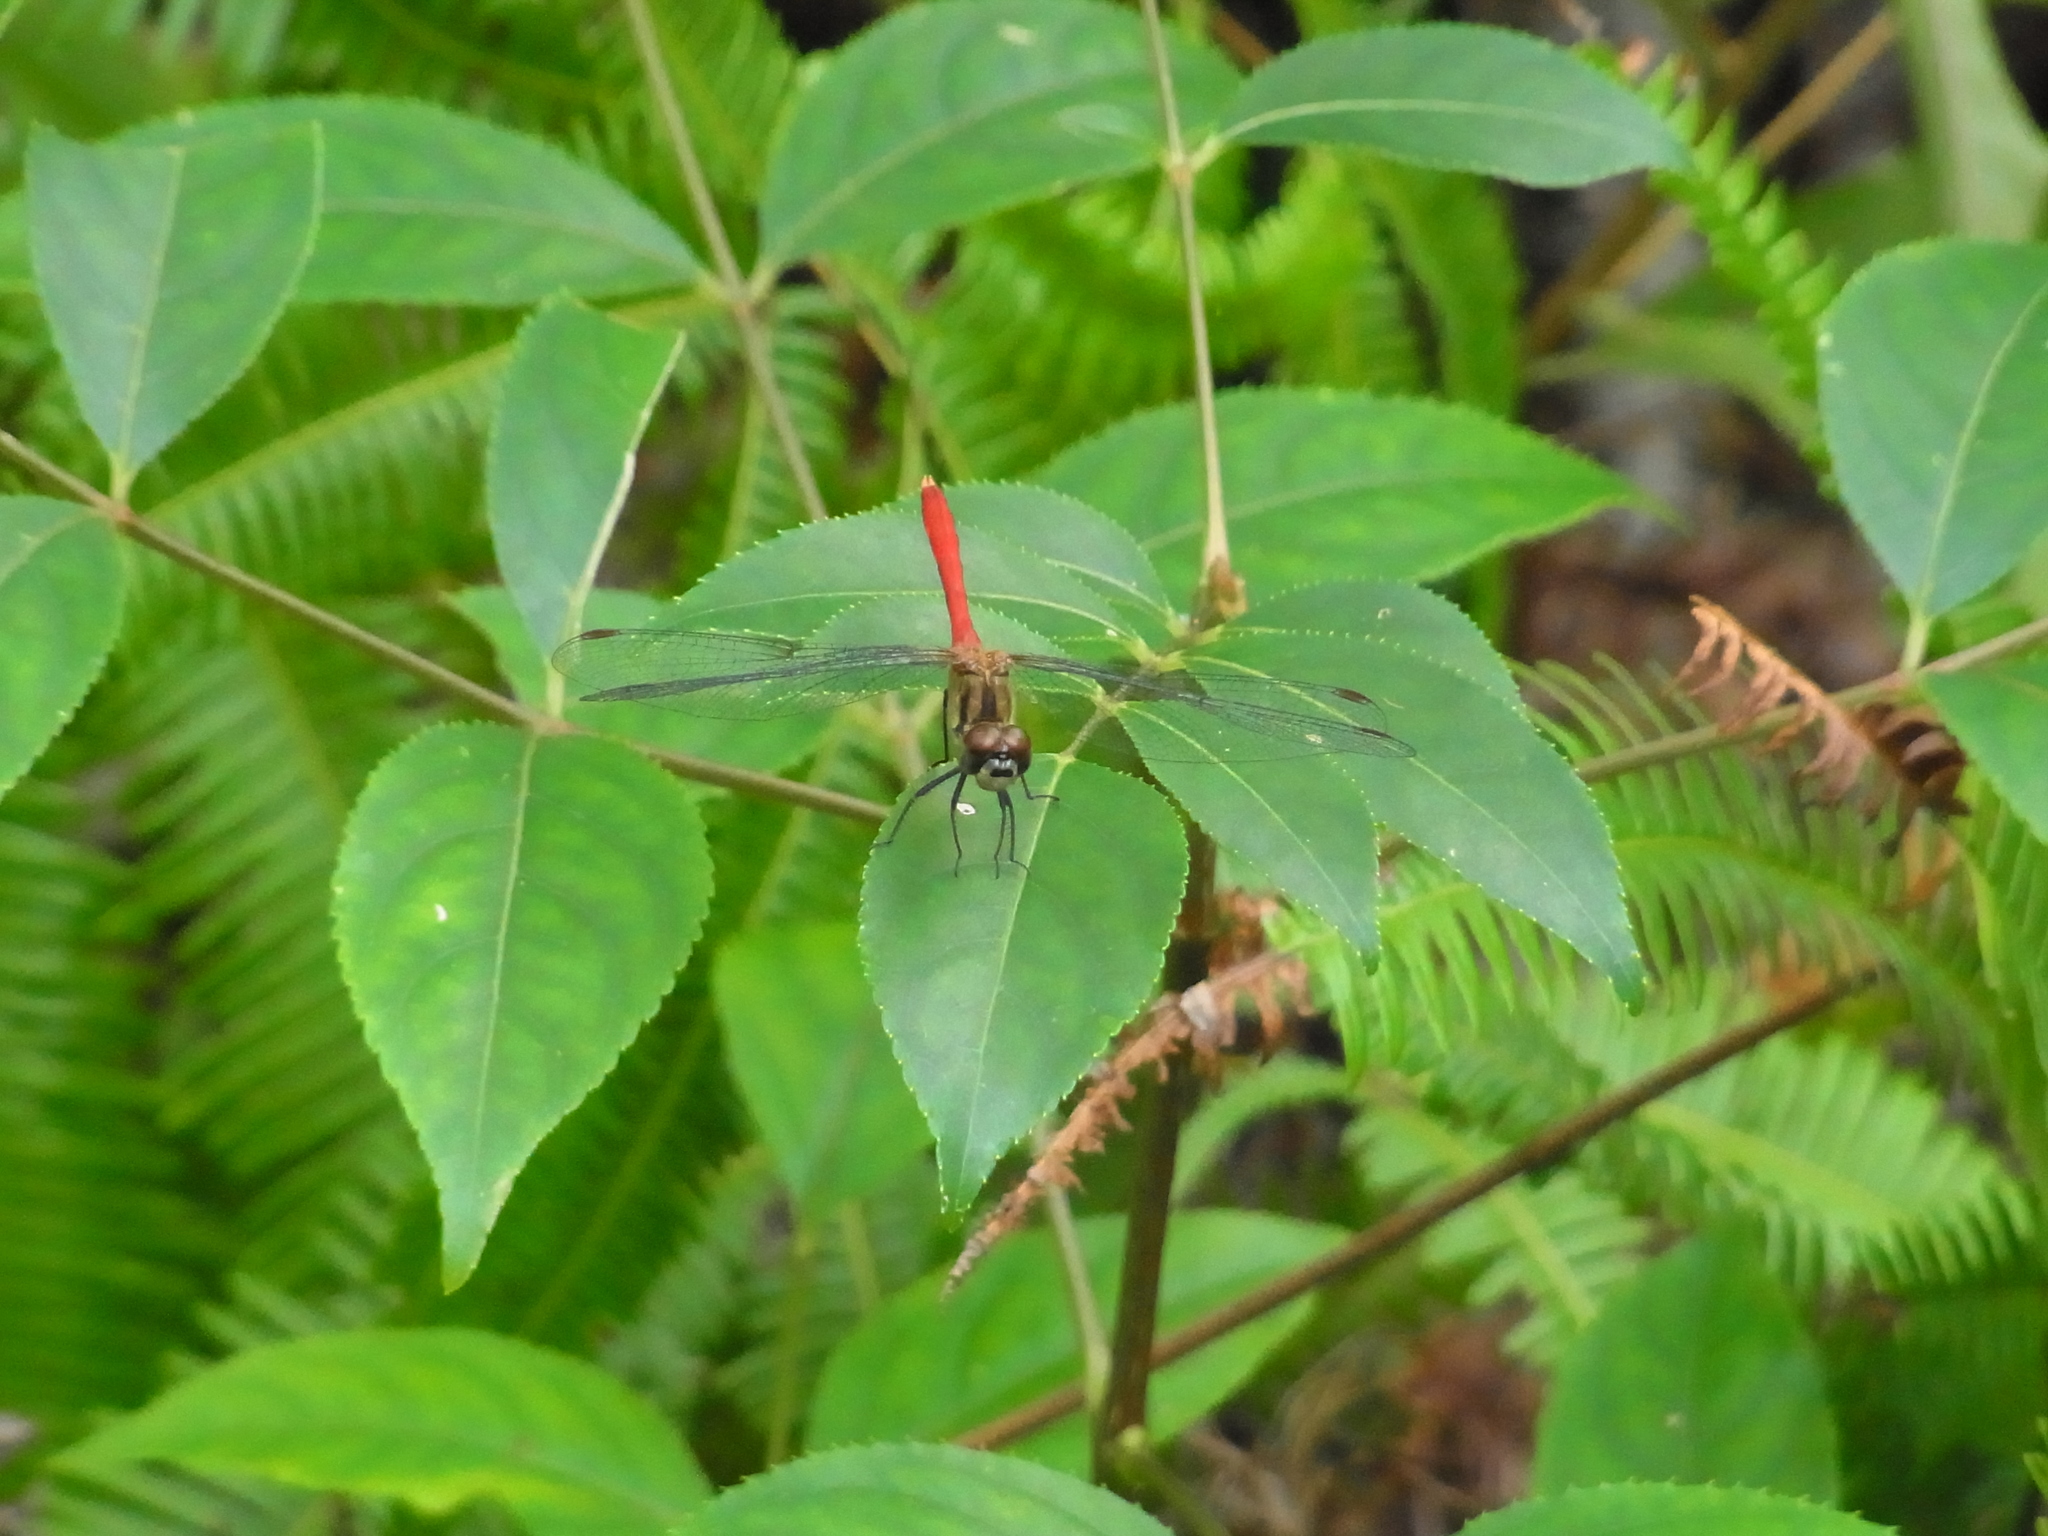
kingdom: Animalia
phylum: Arthropoda
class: Insecta
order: Odonata
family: Libellulidae
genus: Sympetrum
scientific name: Sympetrum eroticum
